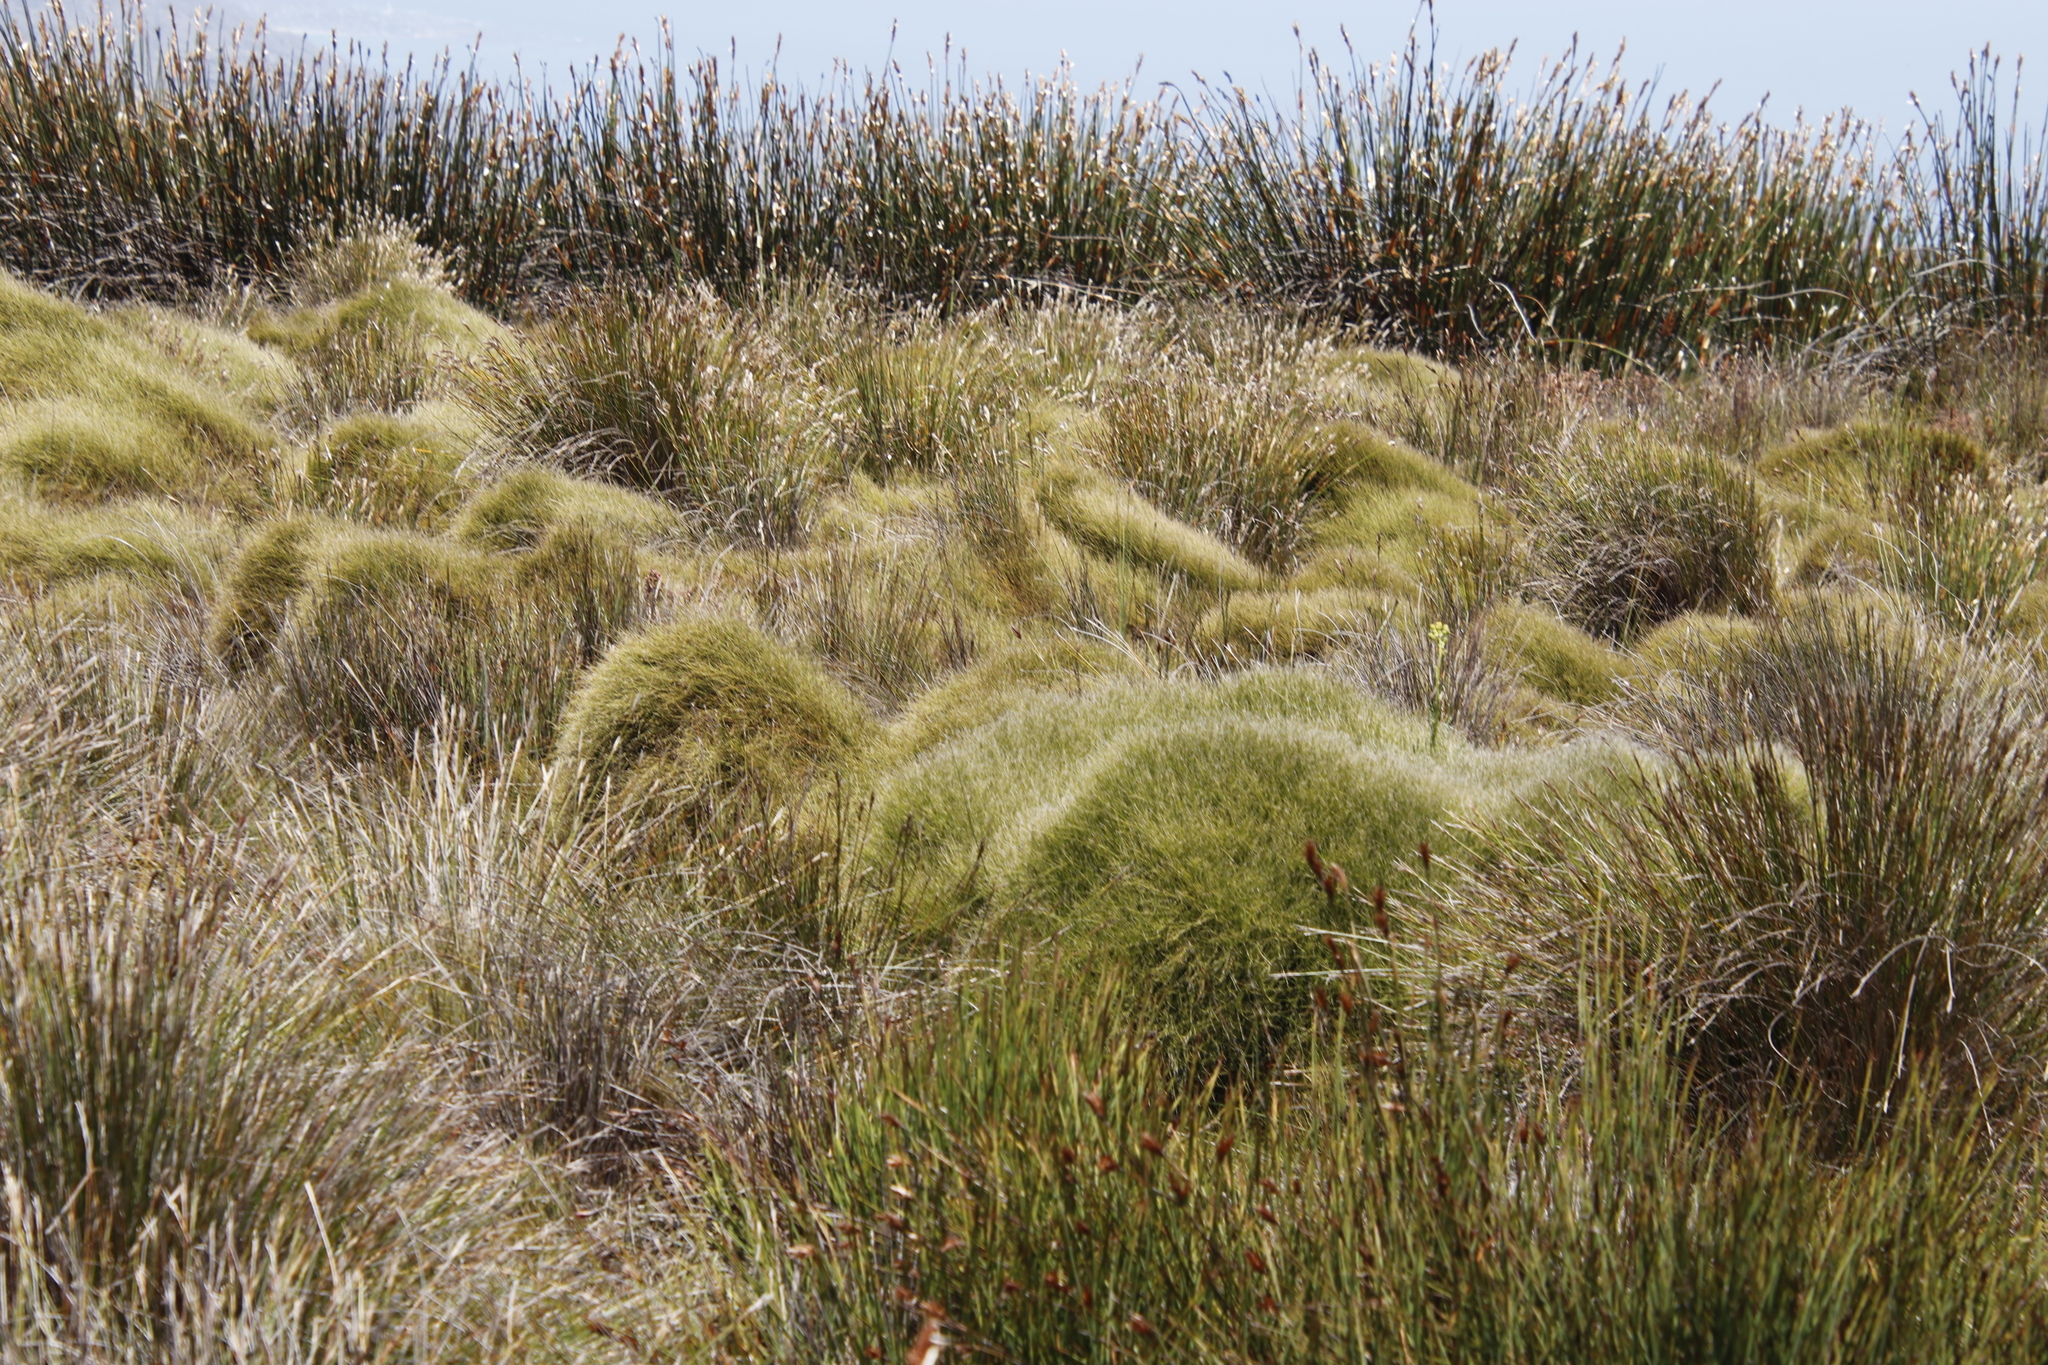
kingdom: Plantae
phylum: Tracheophyta
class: Liliopsida
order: Poales
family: Restionaceae
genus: Elegia
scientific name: Elegia mucronata
